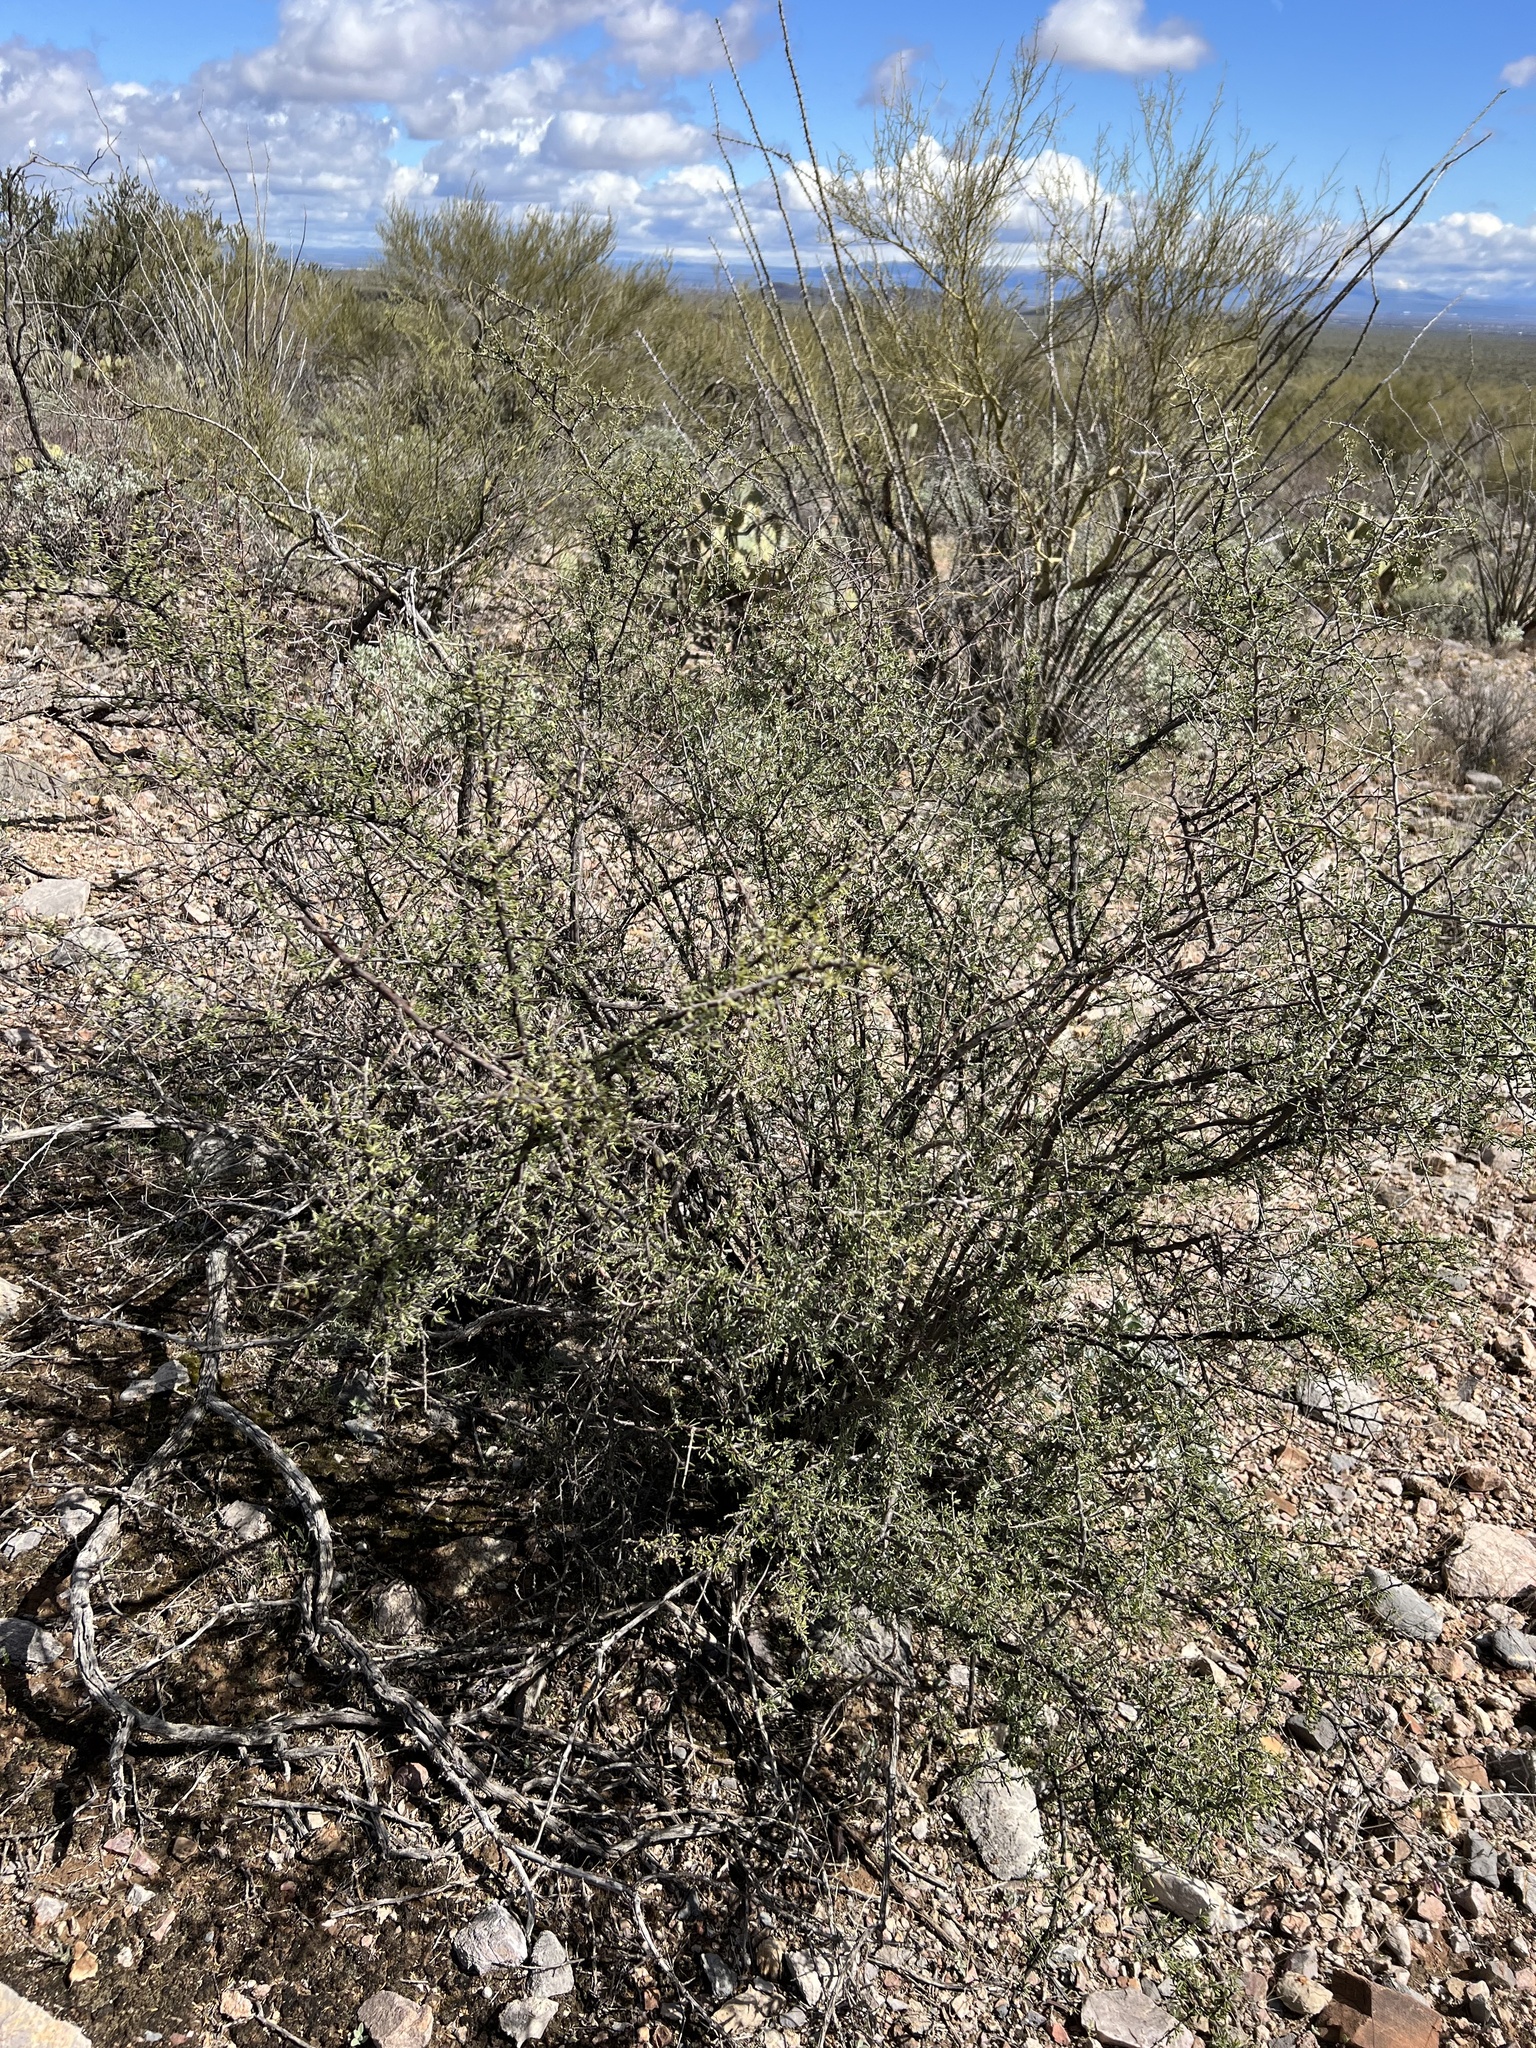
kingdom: Plantae
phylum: Tracheophyta
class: Magnoliopsida
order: Solanales
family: Solanaceae
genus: Lycium
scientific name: Lycium berlandieri
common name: Berlandier wolfberry
